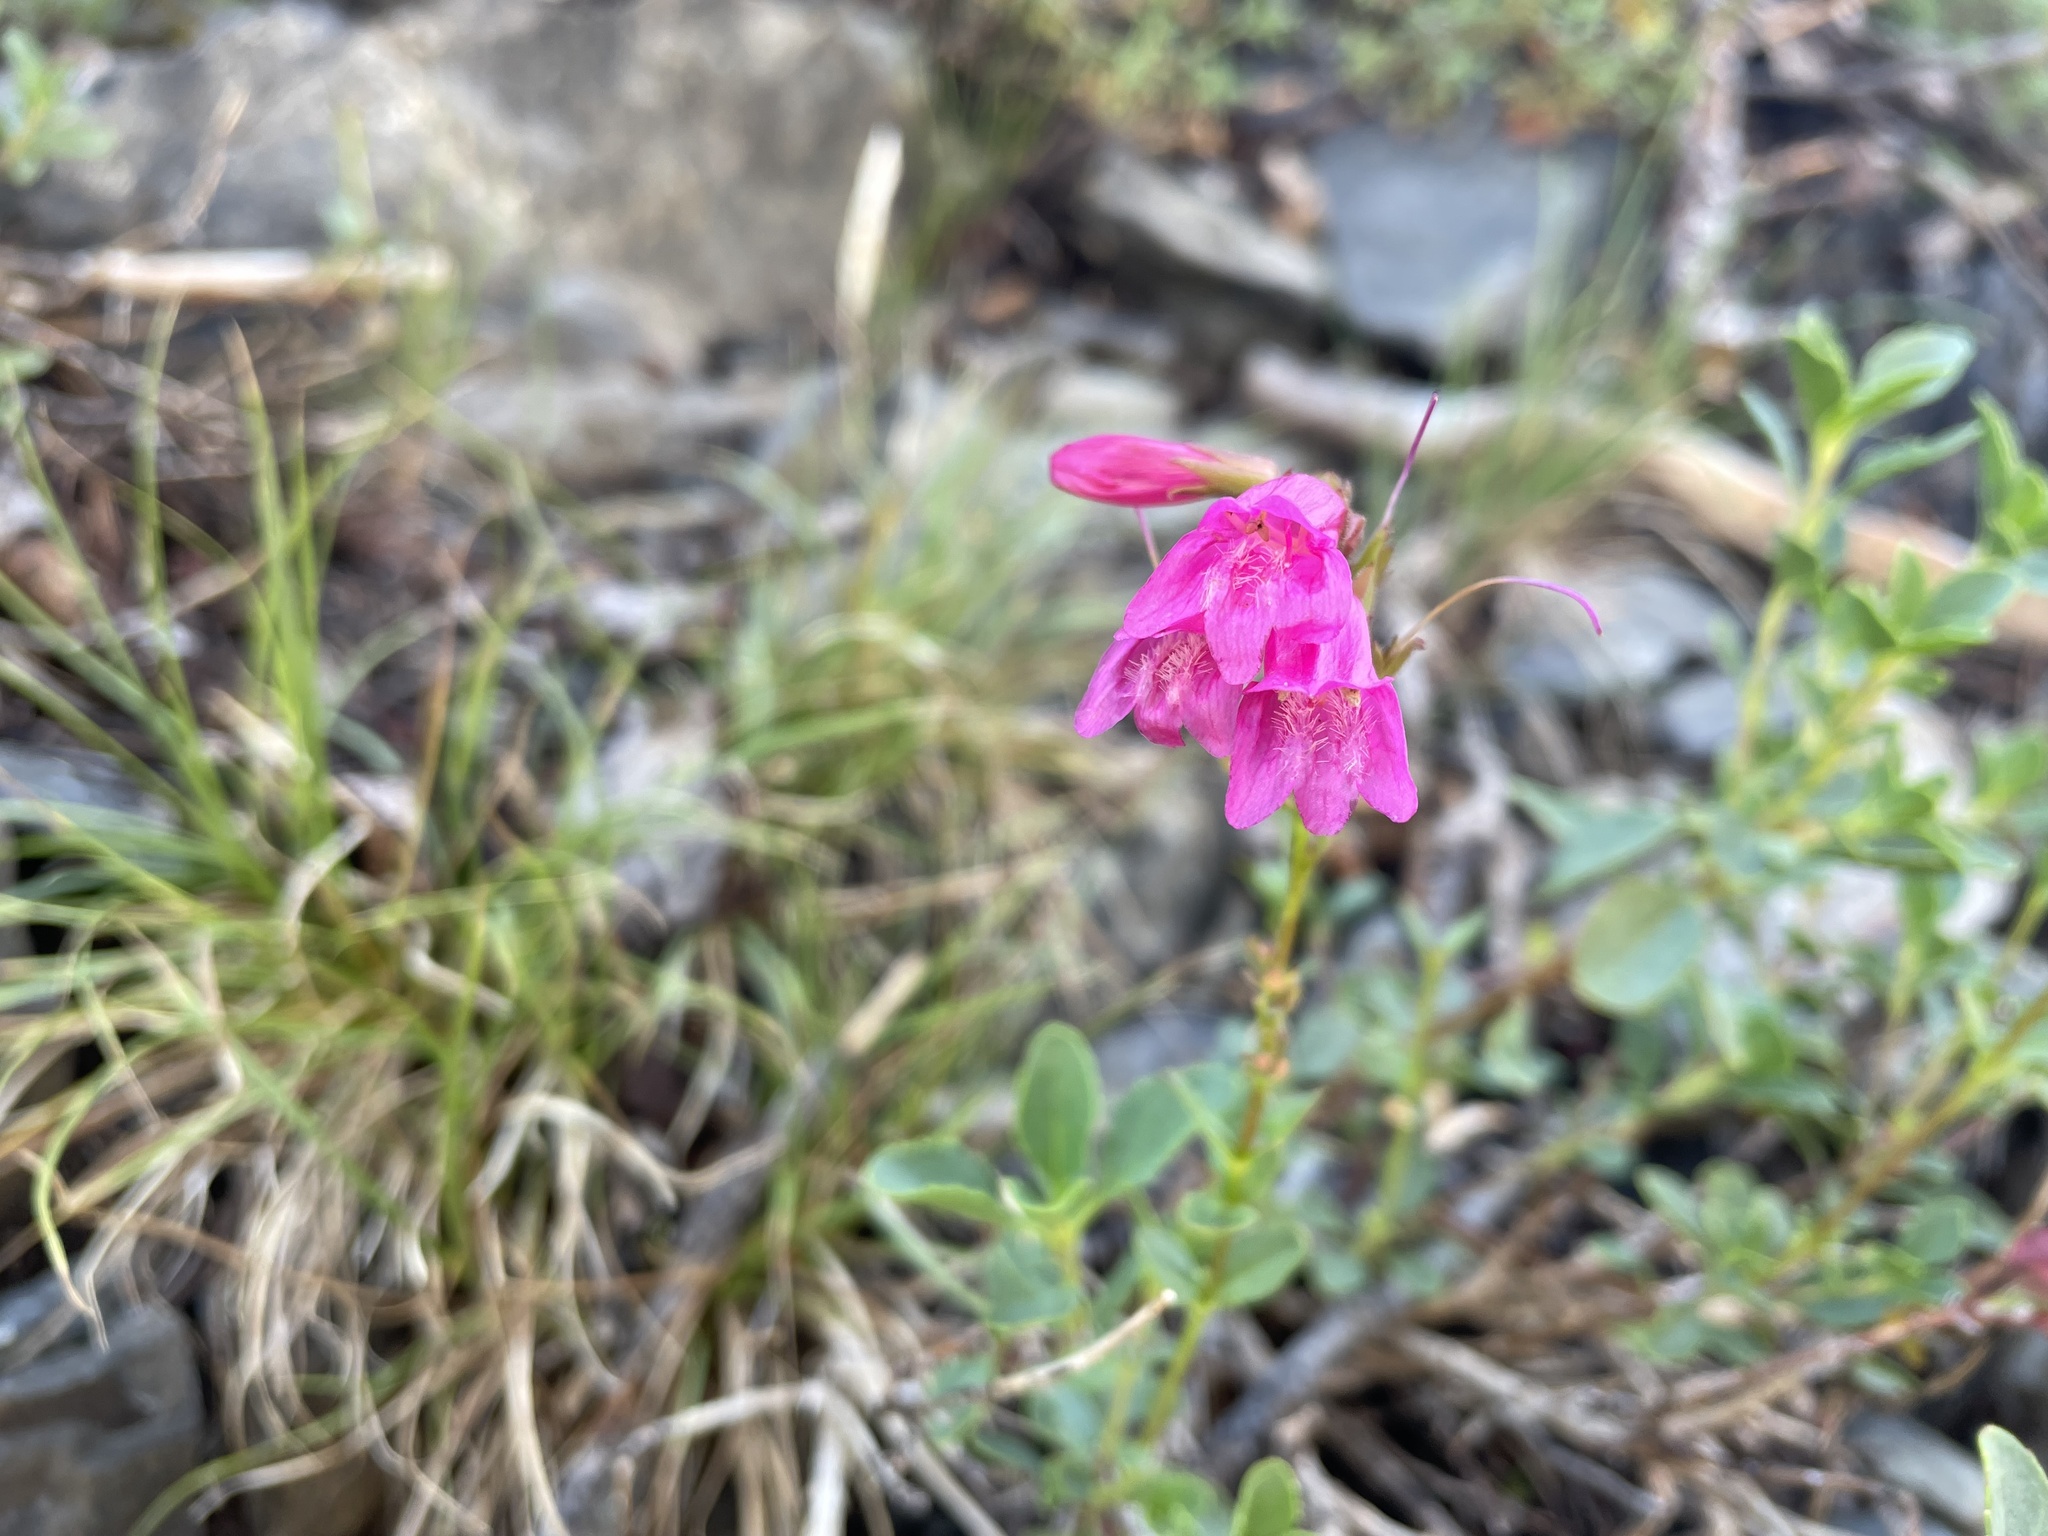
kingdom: Plantae
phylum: Tracheophyta
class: Magnoliopsida
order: Lamiales
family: Plantaginaceae
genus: Penstemon
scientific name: Penstemon newberryi
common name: Mountain-pride
